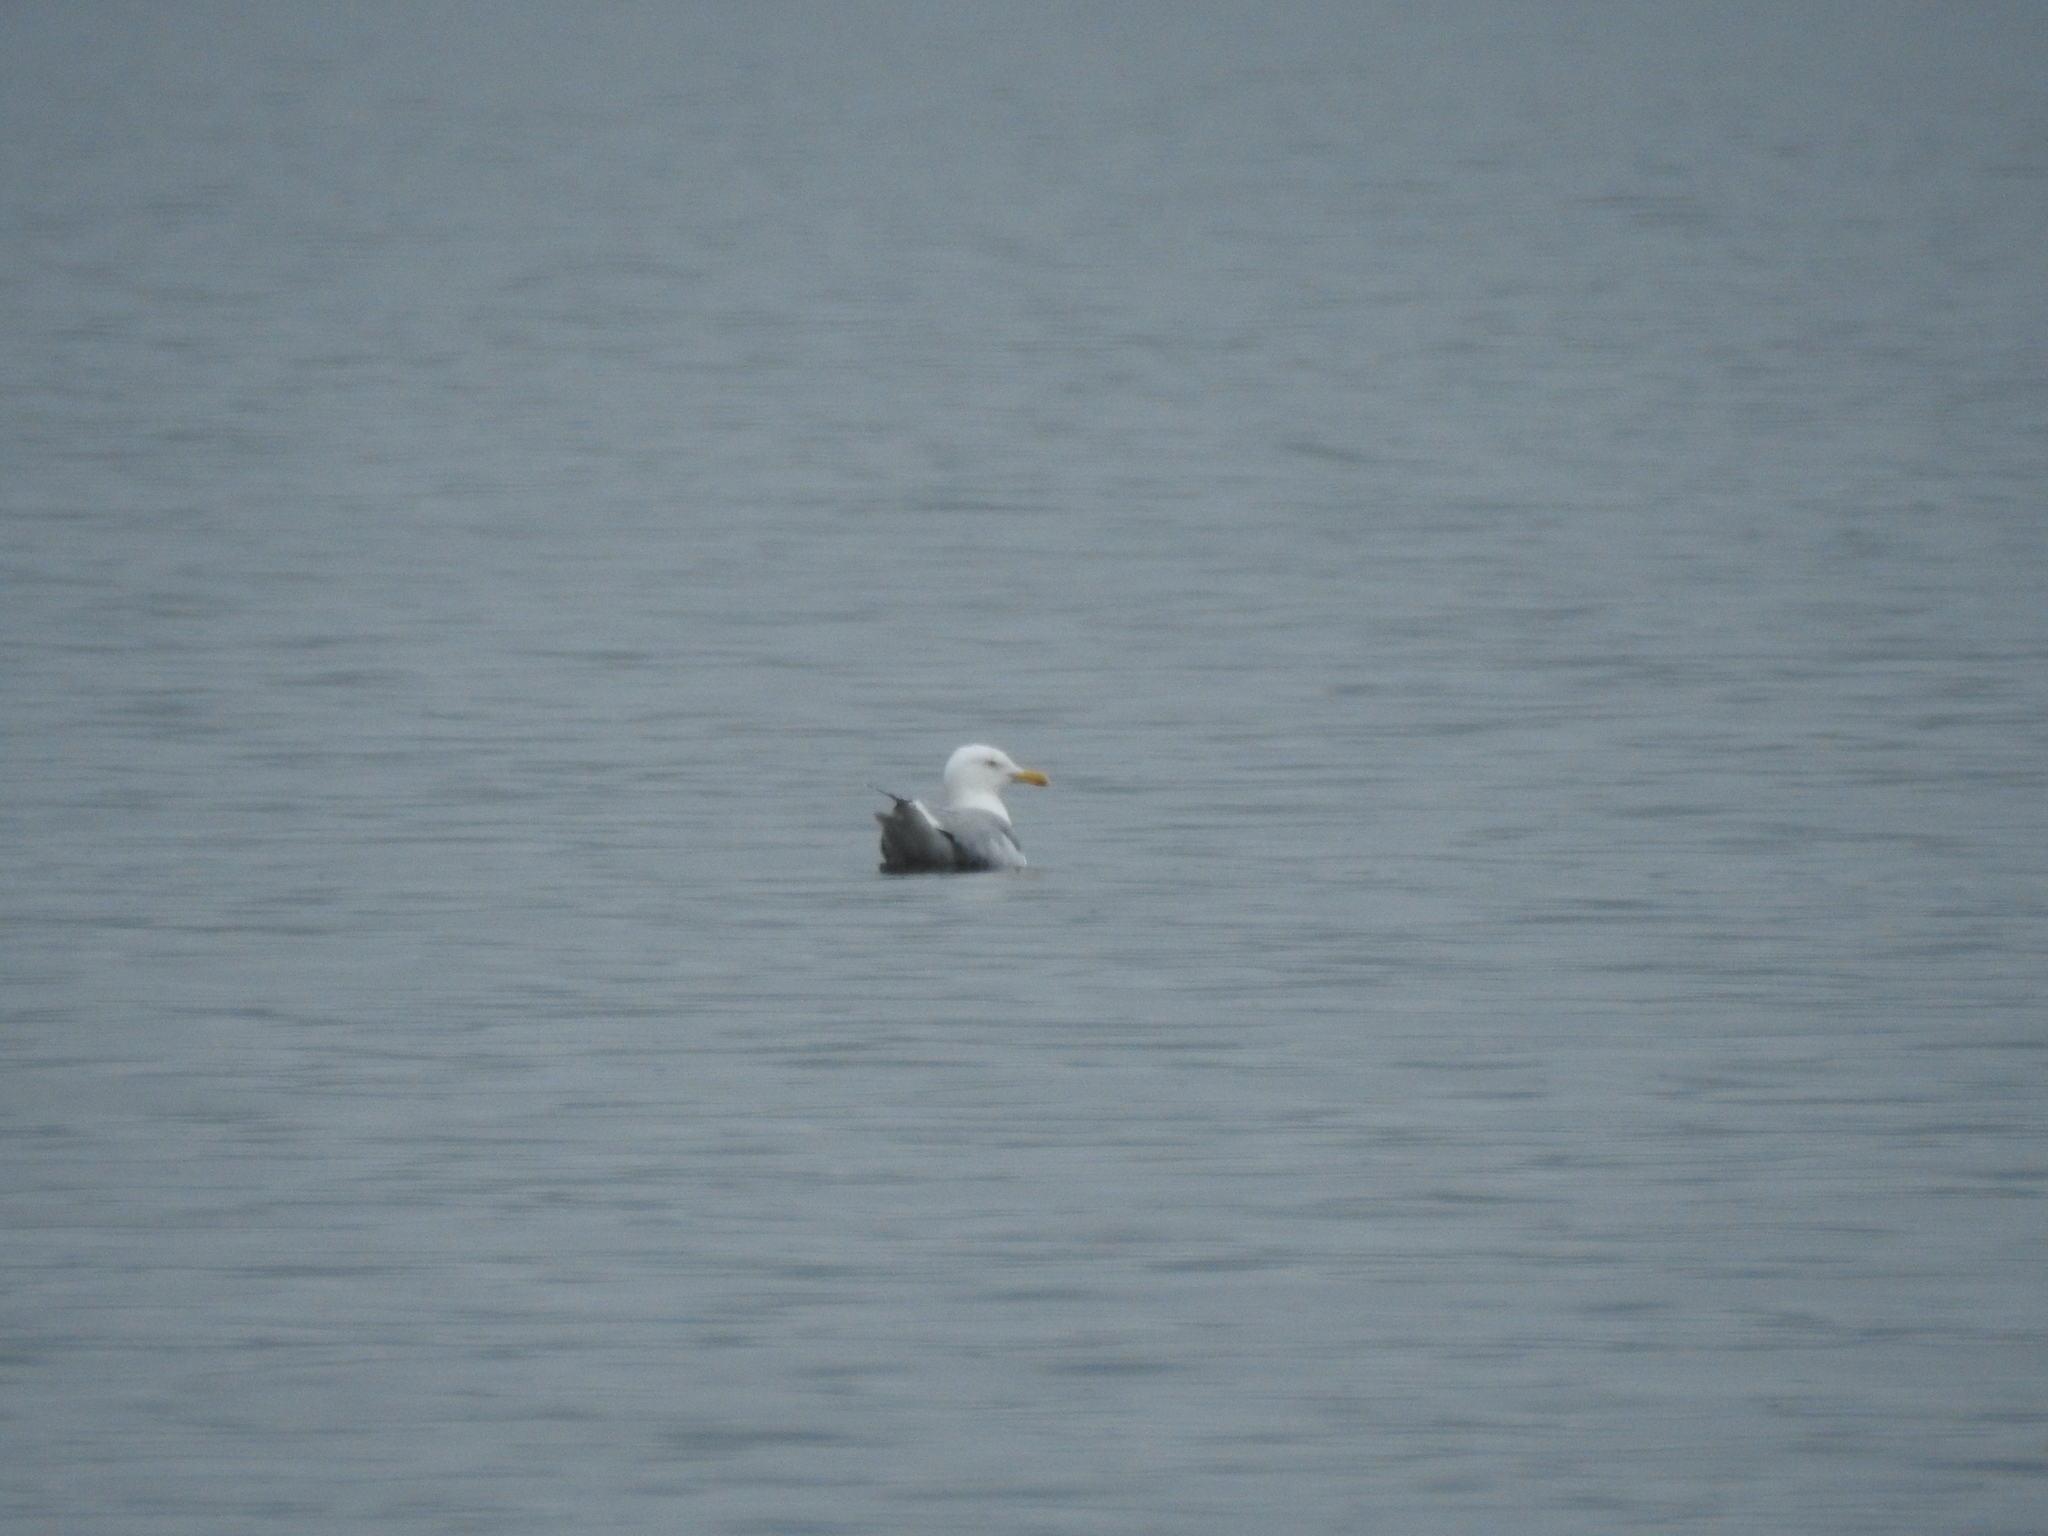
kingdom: Animalia
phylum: Chordata
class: Aves
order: Charadriiformes
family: Laridae
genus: Larus
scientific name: Larus argentatus
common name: Herring gull
